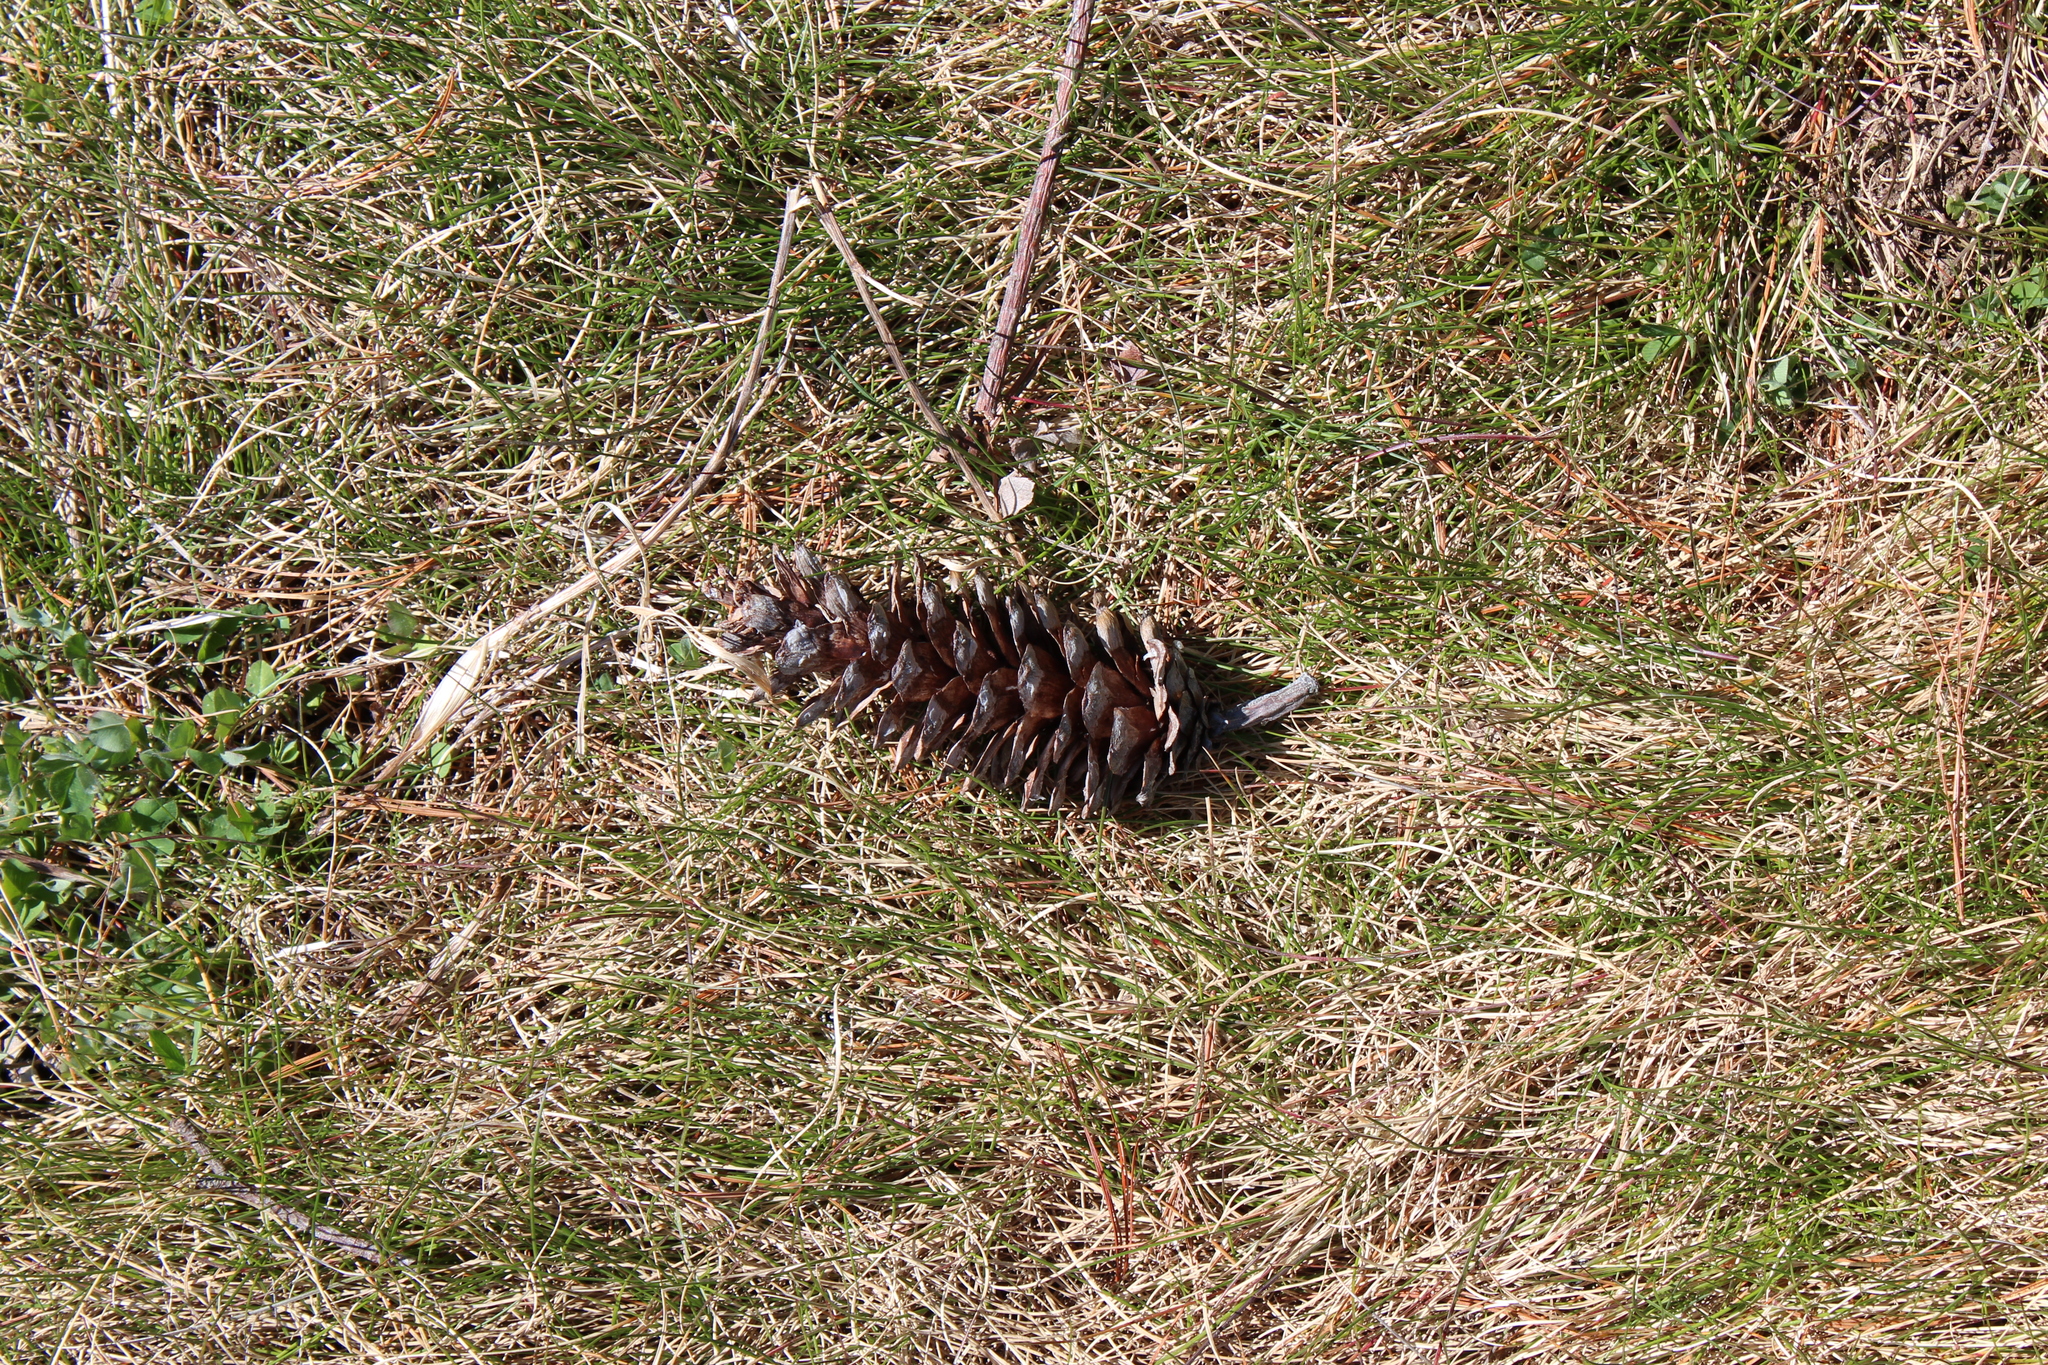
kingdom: Plantae
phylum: Tracheophyta
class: Pinopsida
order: Pinales
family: Pinaceae
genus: Pinus
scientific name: Pinus strobus
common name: Weymouth pine
